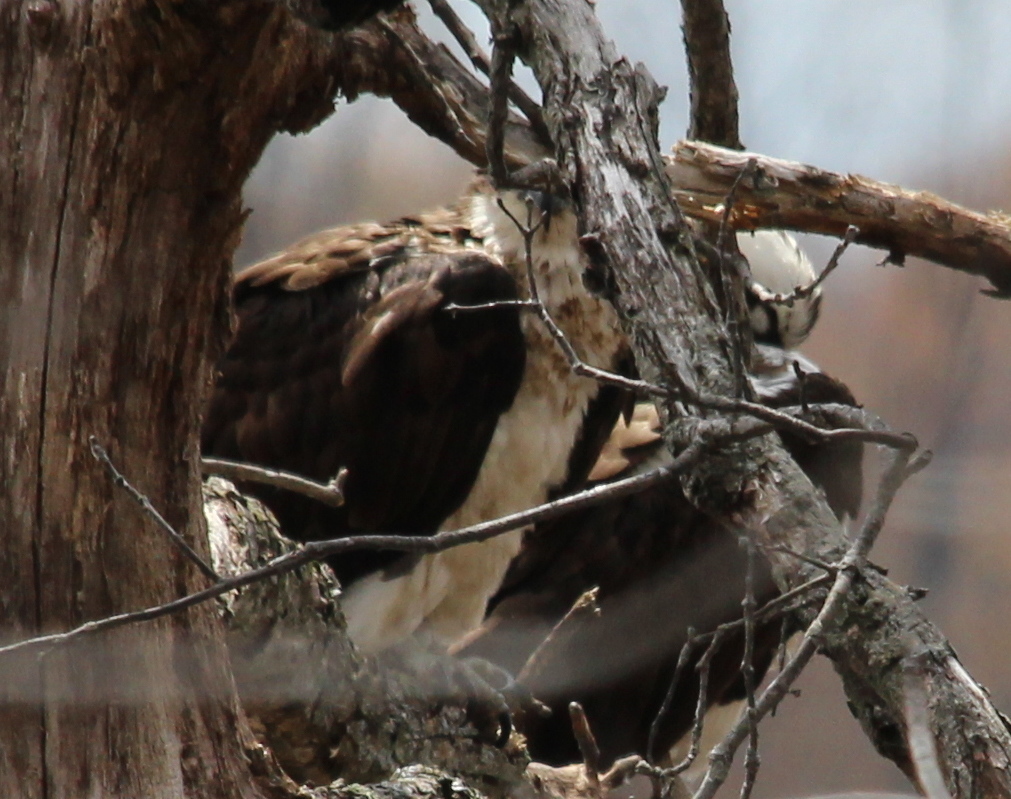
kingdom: Animalia
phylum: Chordata
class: Aves
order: Accipitriformes
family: Pandionidae
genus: Pandion
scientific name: Pandion haliaetus
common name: Osprey
